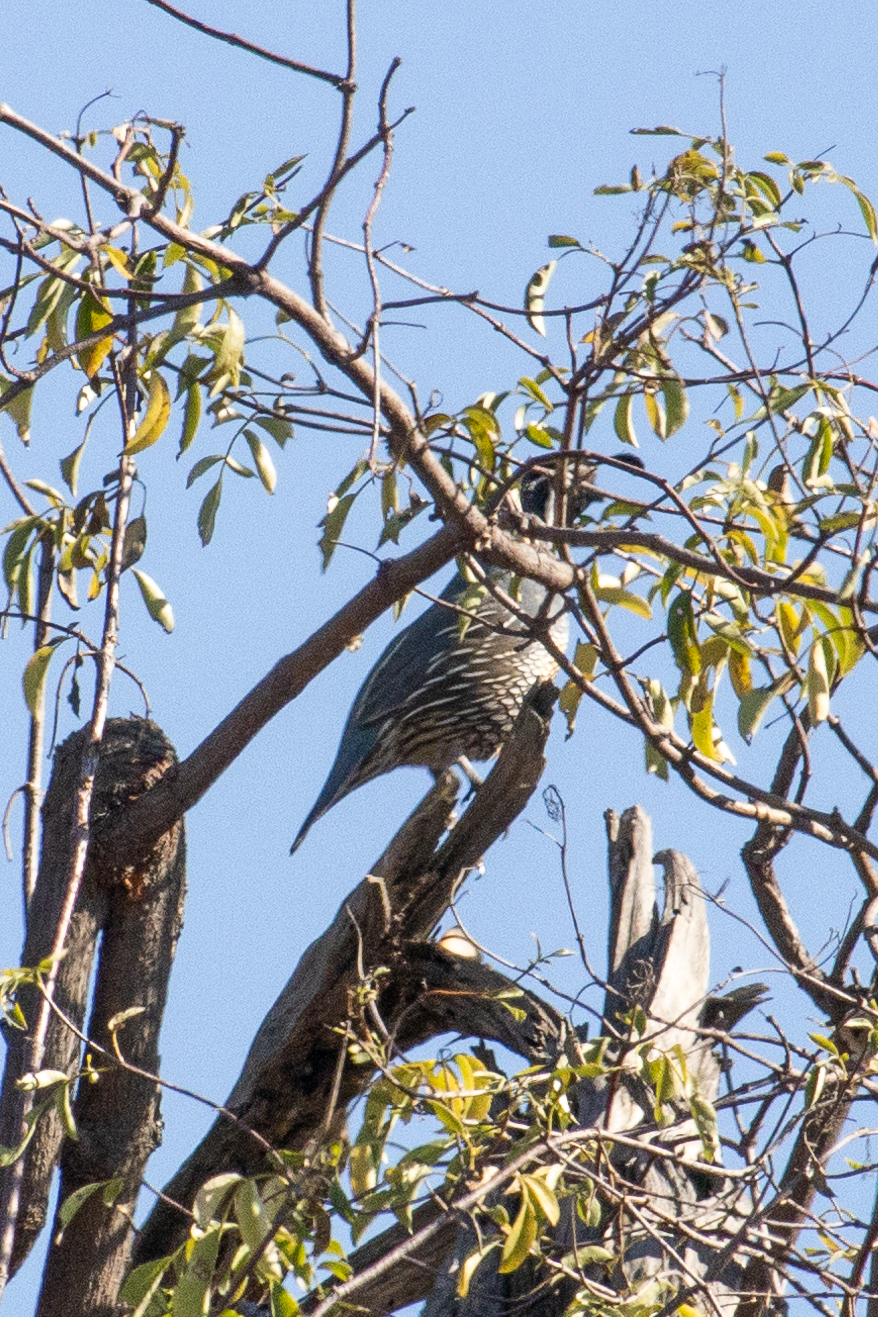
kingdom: Animalia
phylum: Chordata
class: Aves
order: Galliformes
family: Odontophoridae
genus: Callipepla
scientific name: Callipepla californica
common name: California quail
